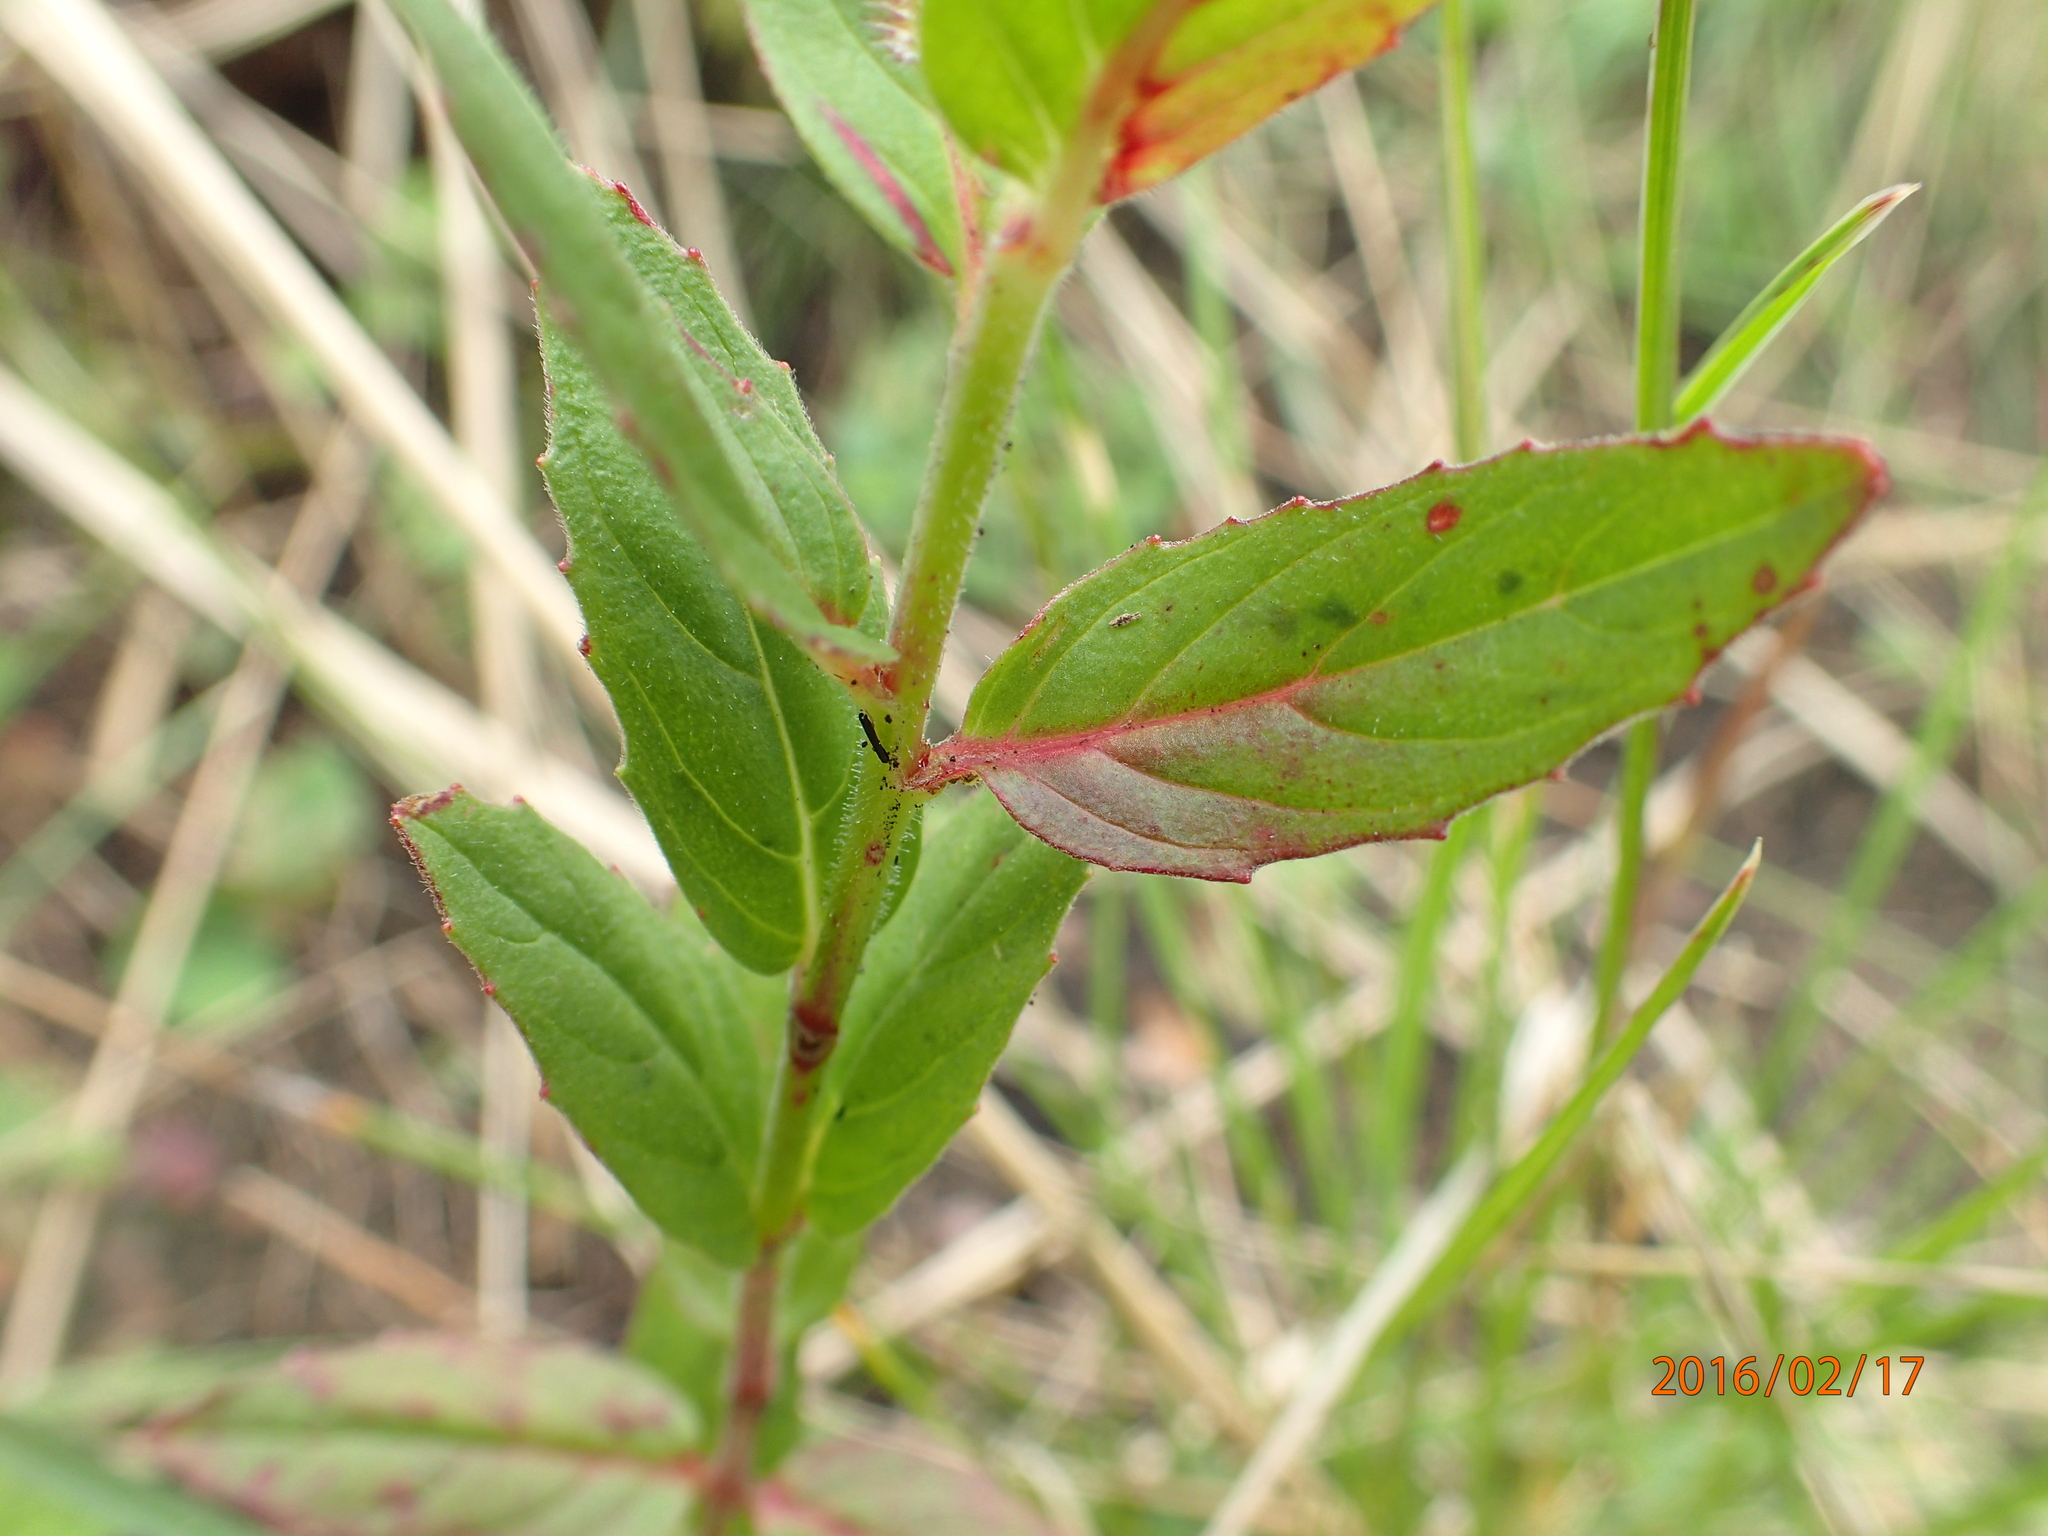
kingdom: Plantae
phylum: Tracheophyta
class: Magnoliopsida
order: Myrtales
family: Onagraceae
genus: Epilobium
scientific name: Epilobium capense
